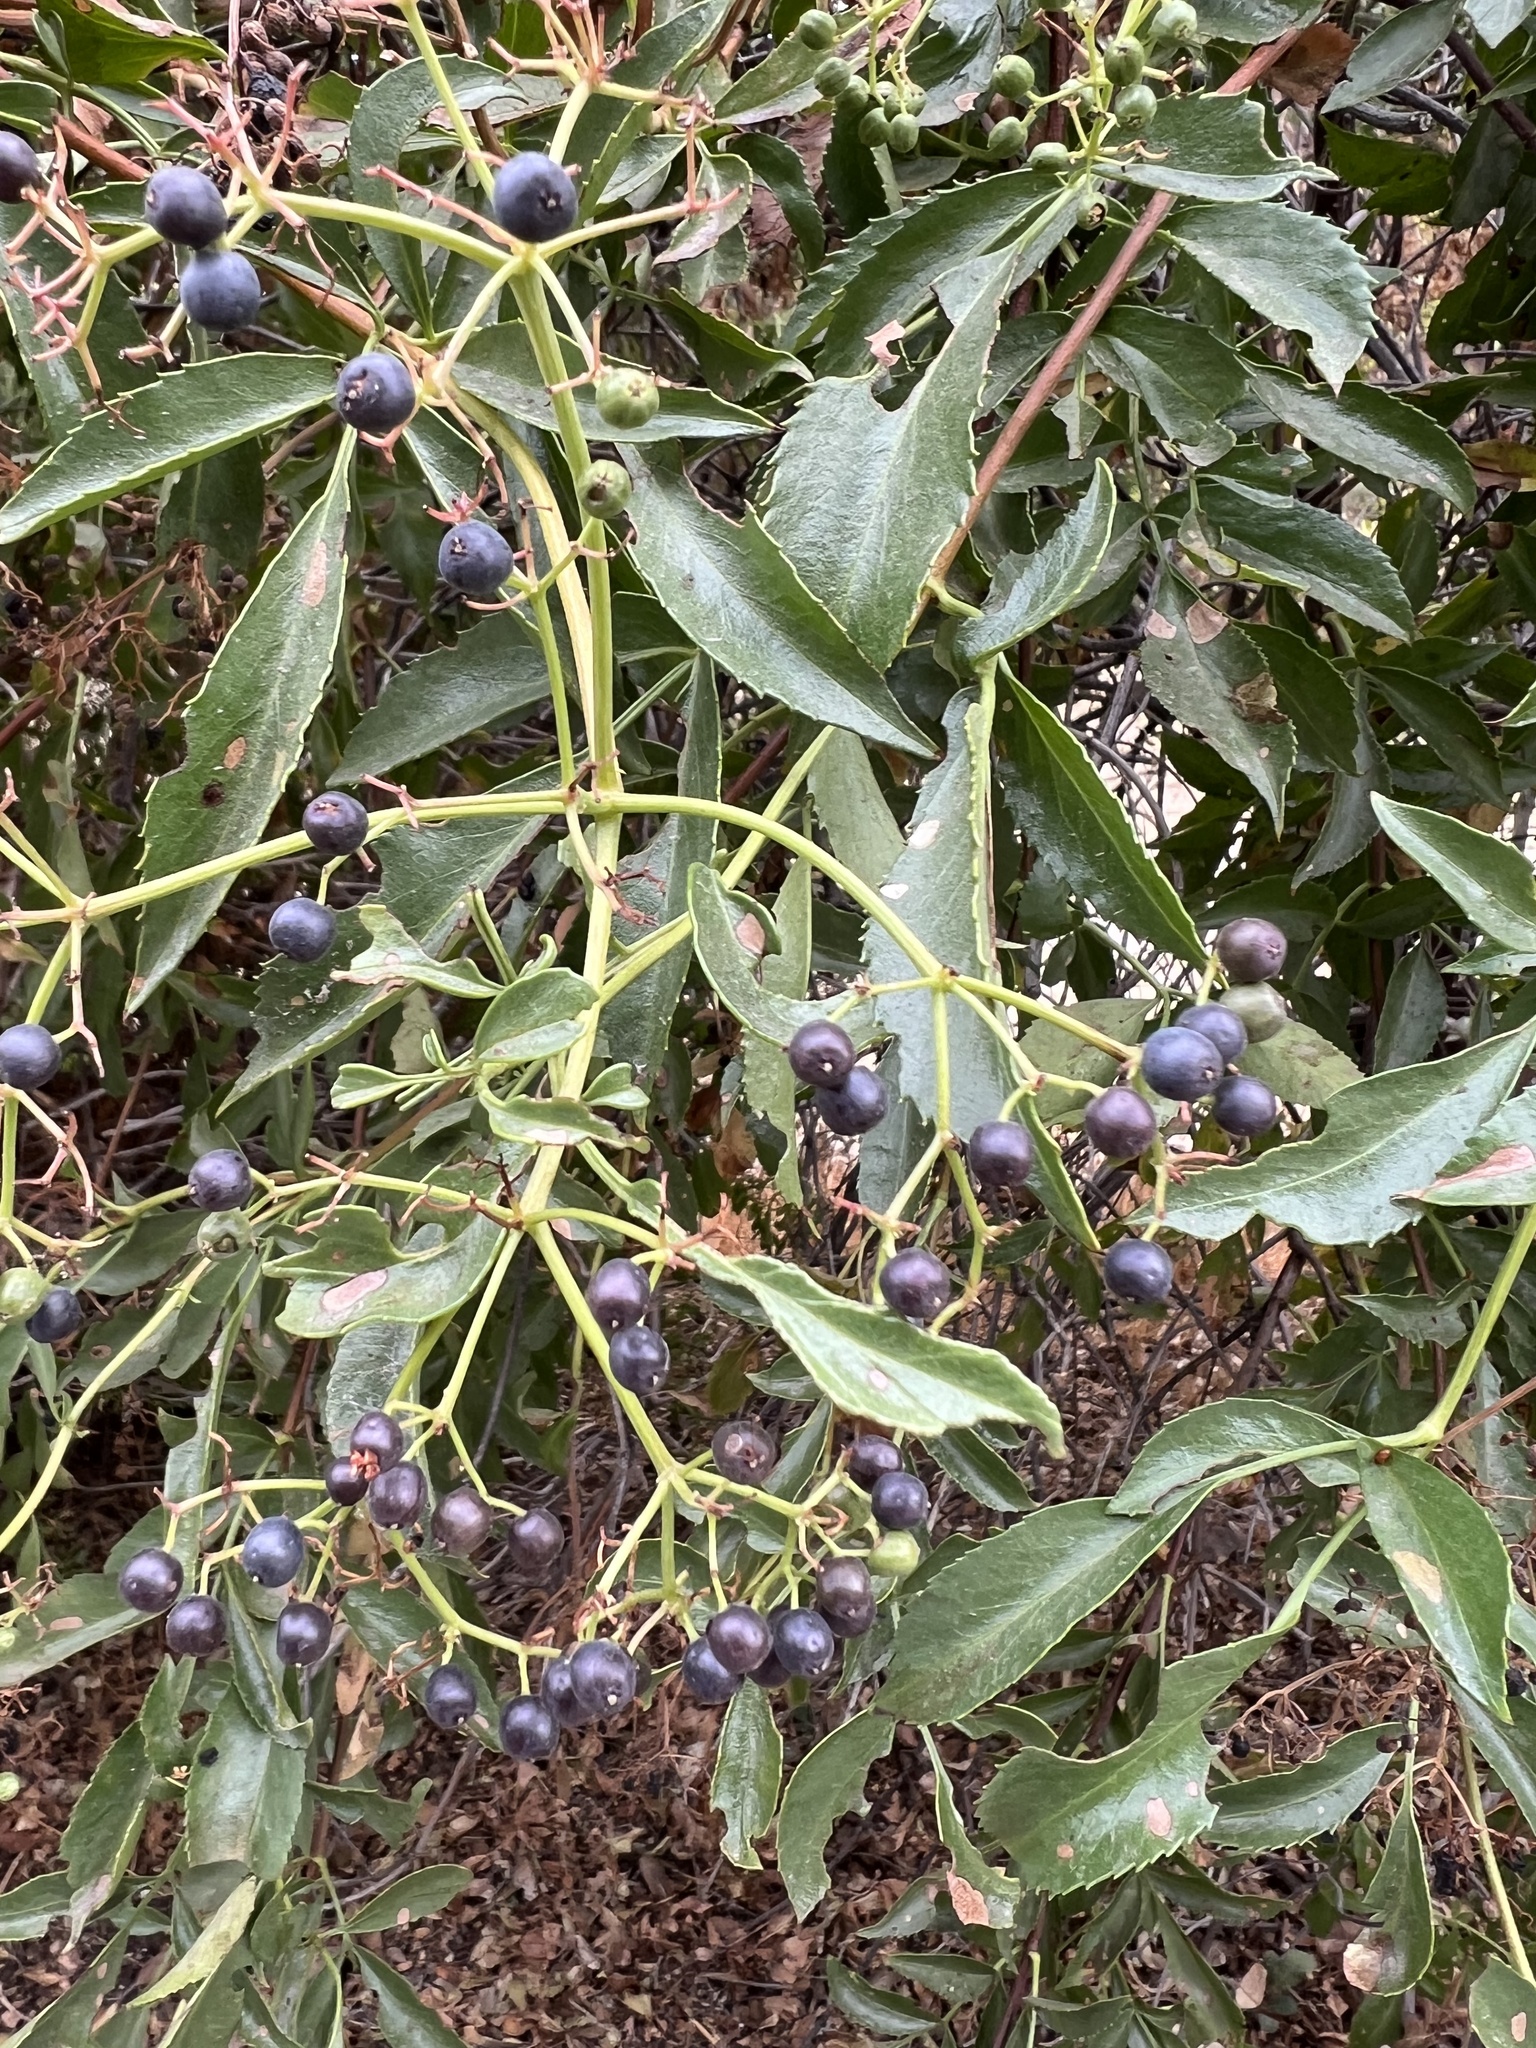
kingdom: Plantae
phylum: Tracheophyta
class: Magnoliopsida
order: Dipsacales
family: Viburnaceae
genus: Sambucus
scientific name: Sambucus cerulea
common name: Blue elder
